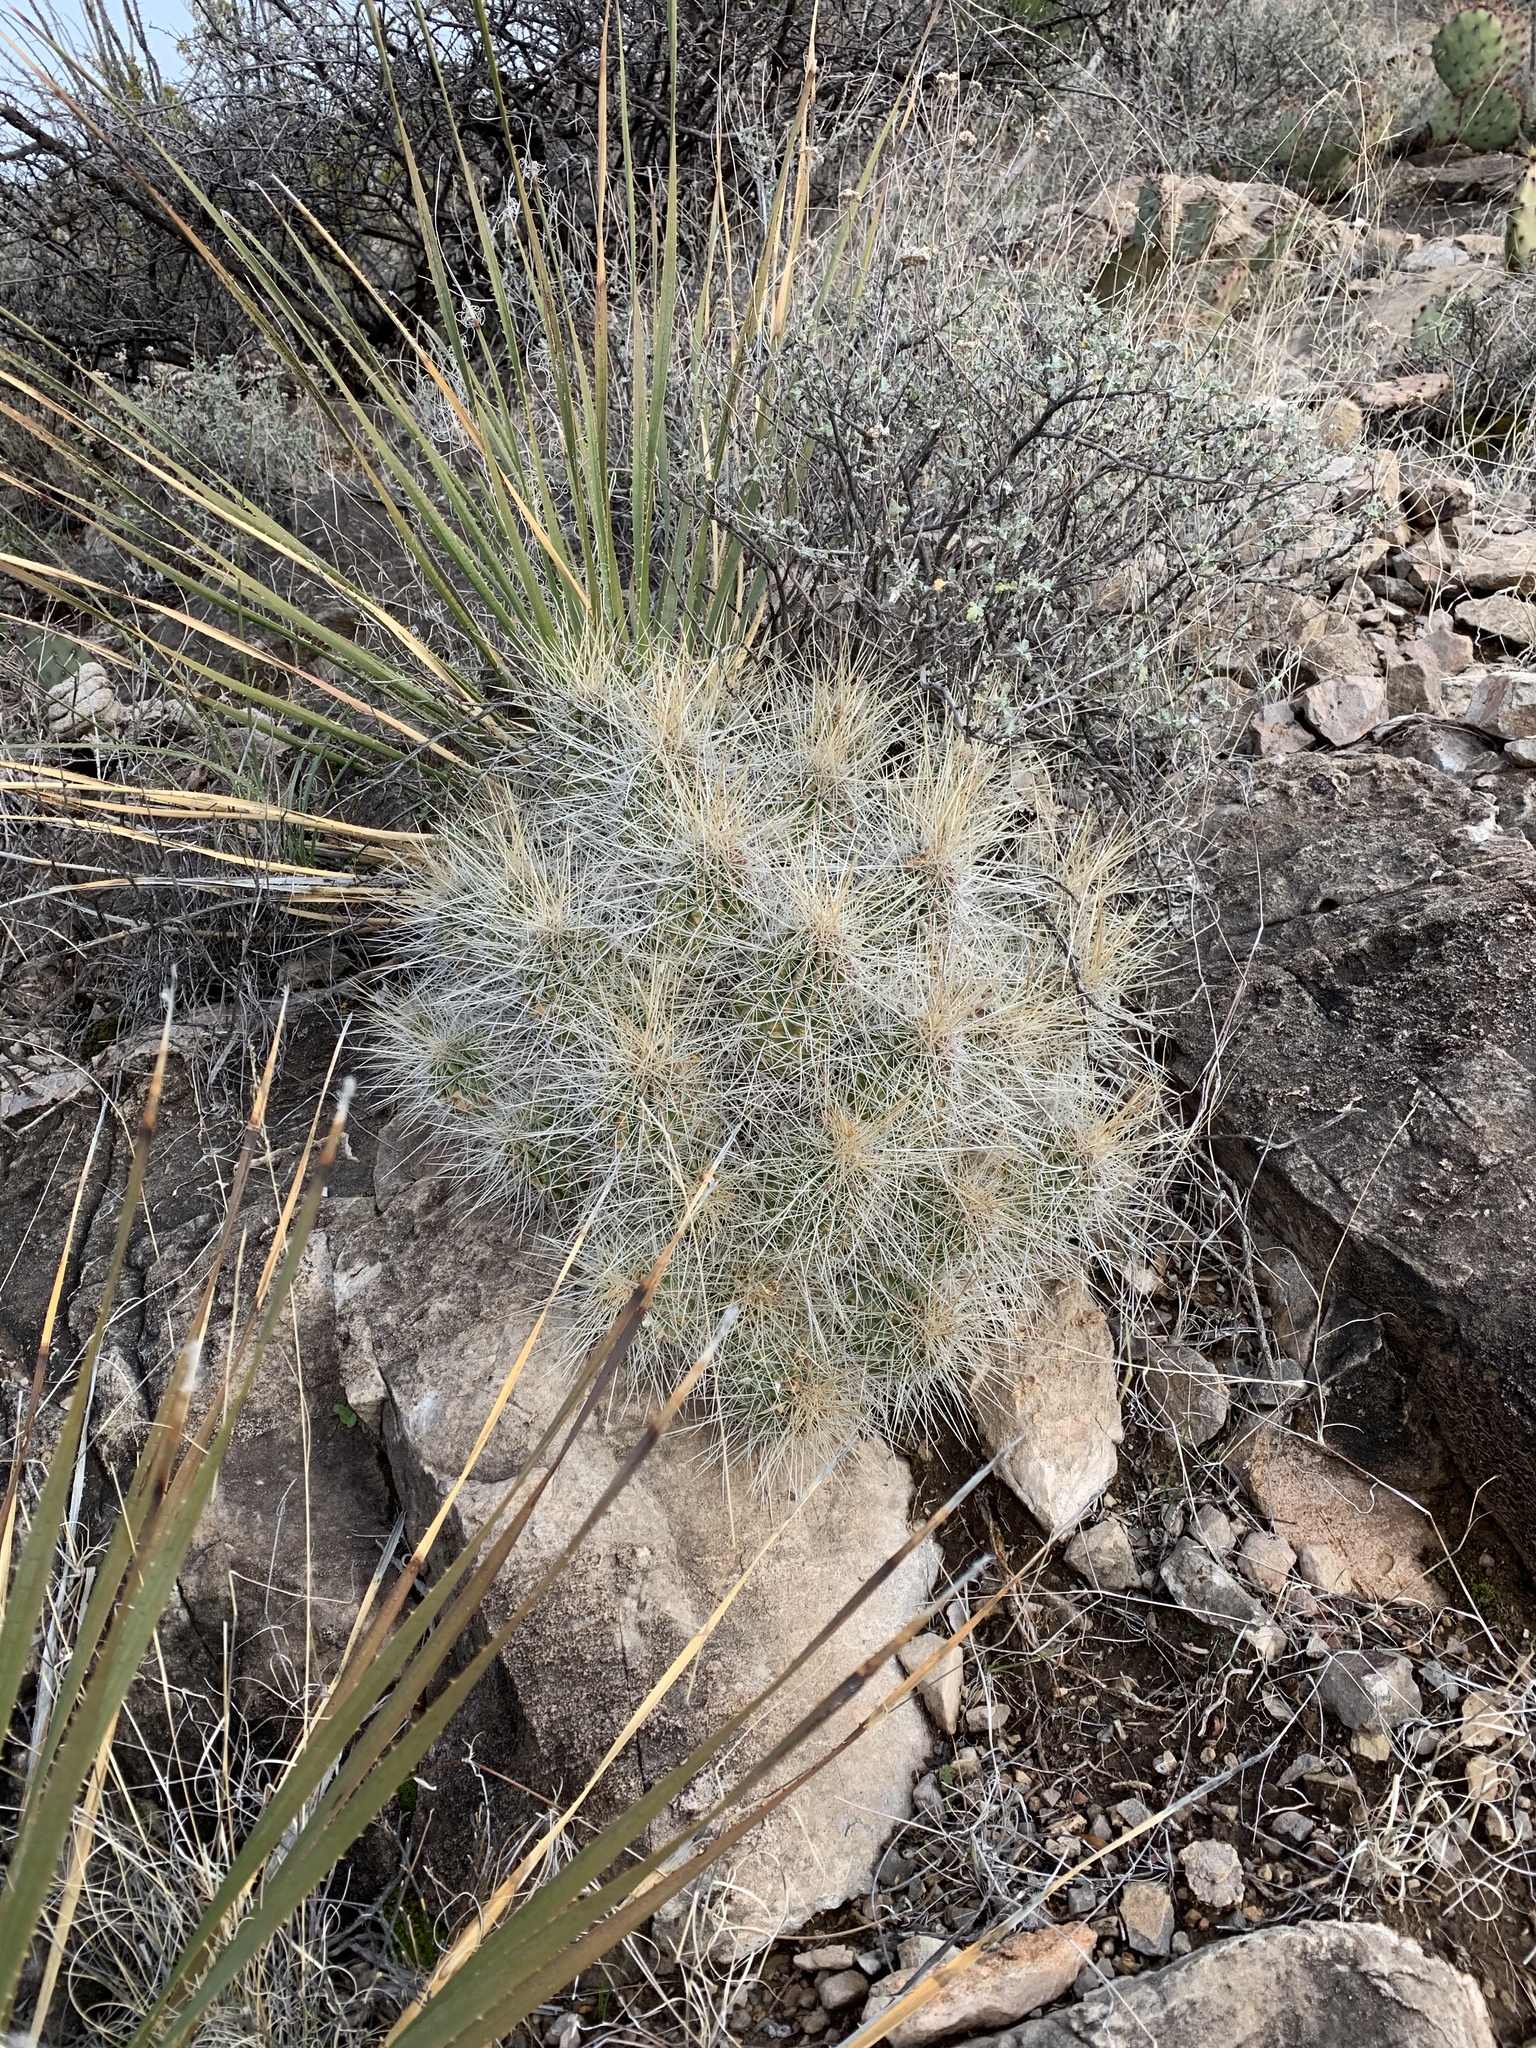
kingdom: Plantae
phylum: Tracheophyta
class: Magnoliopsida
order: Caryophyllales
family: Cactaceae
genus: Echinocereus
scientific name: Echinocereus stramineus
